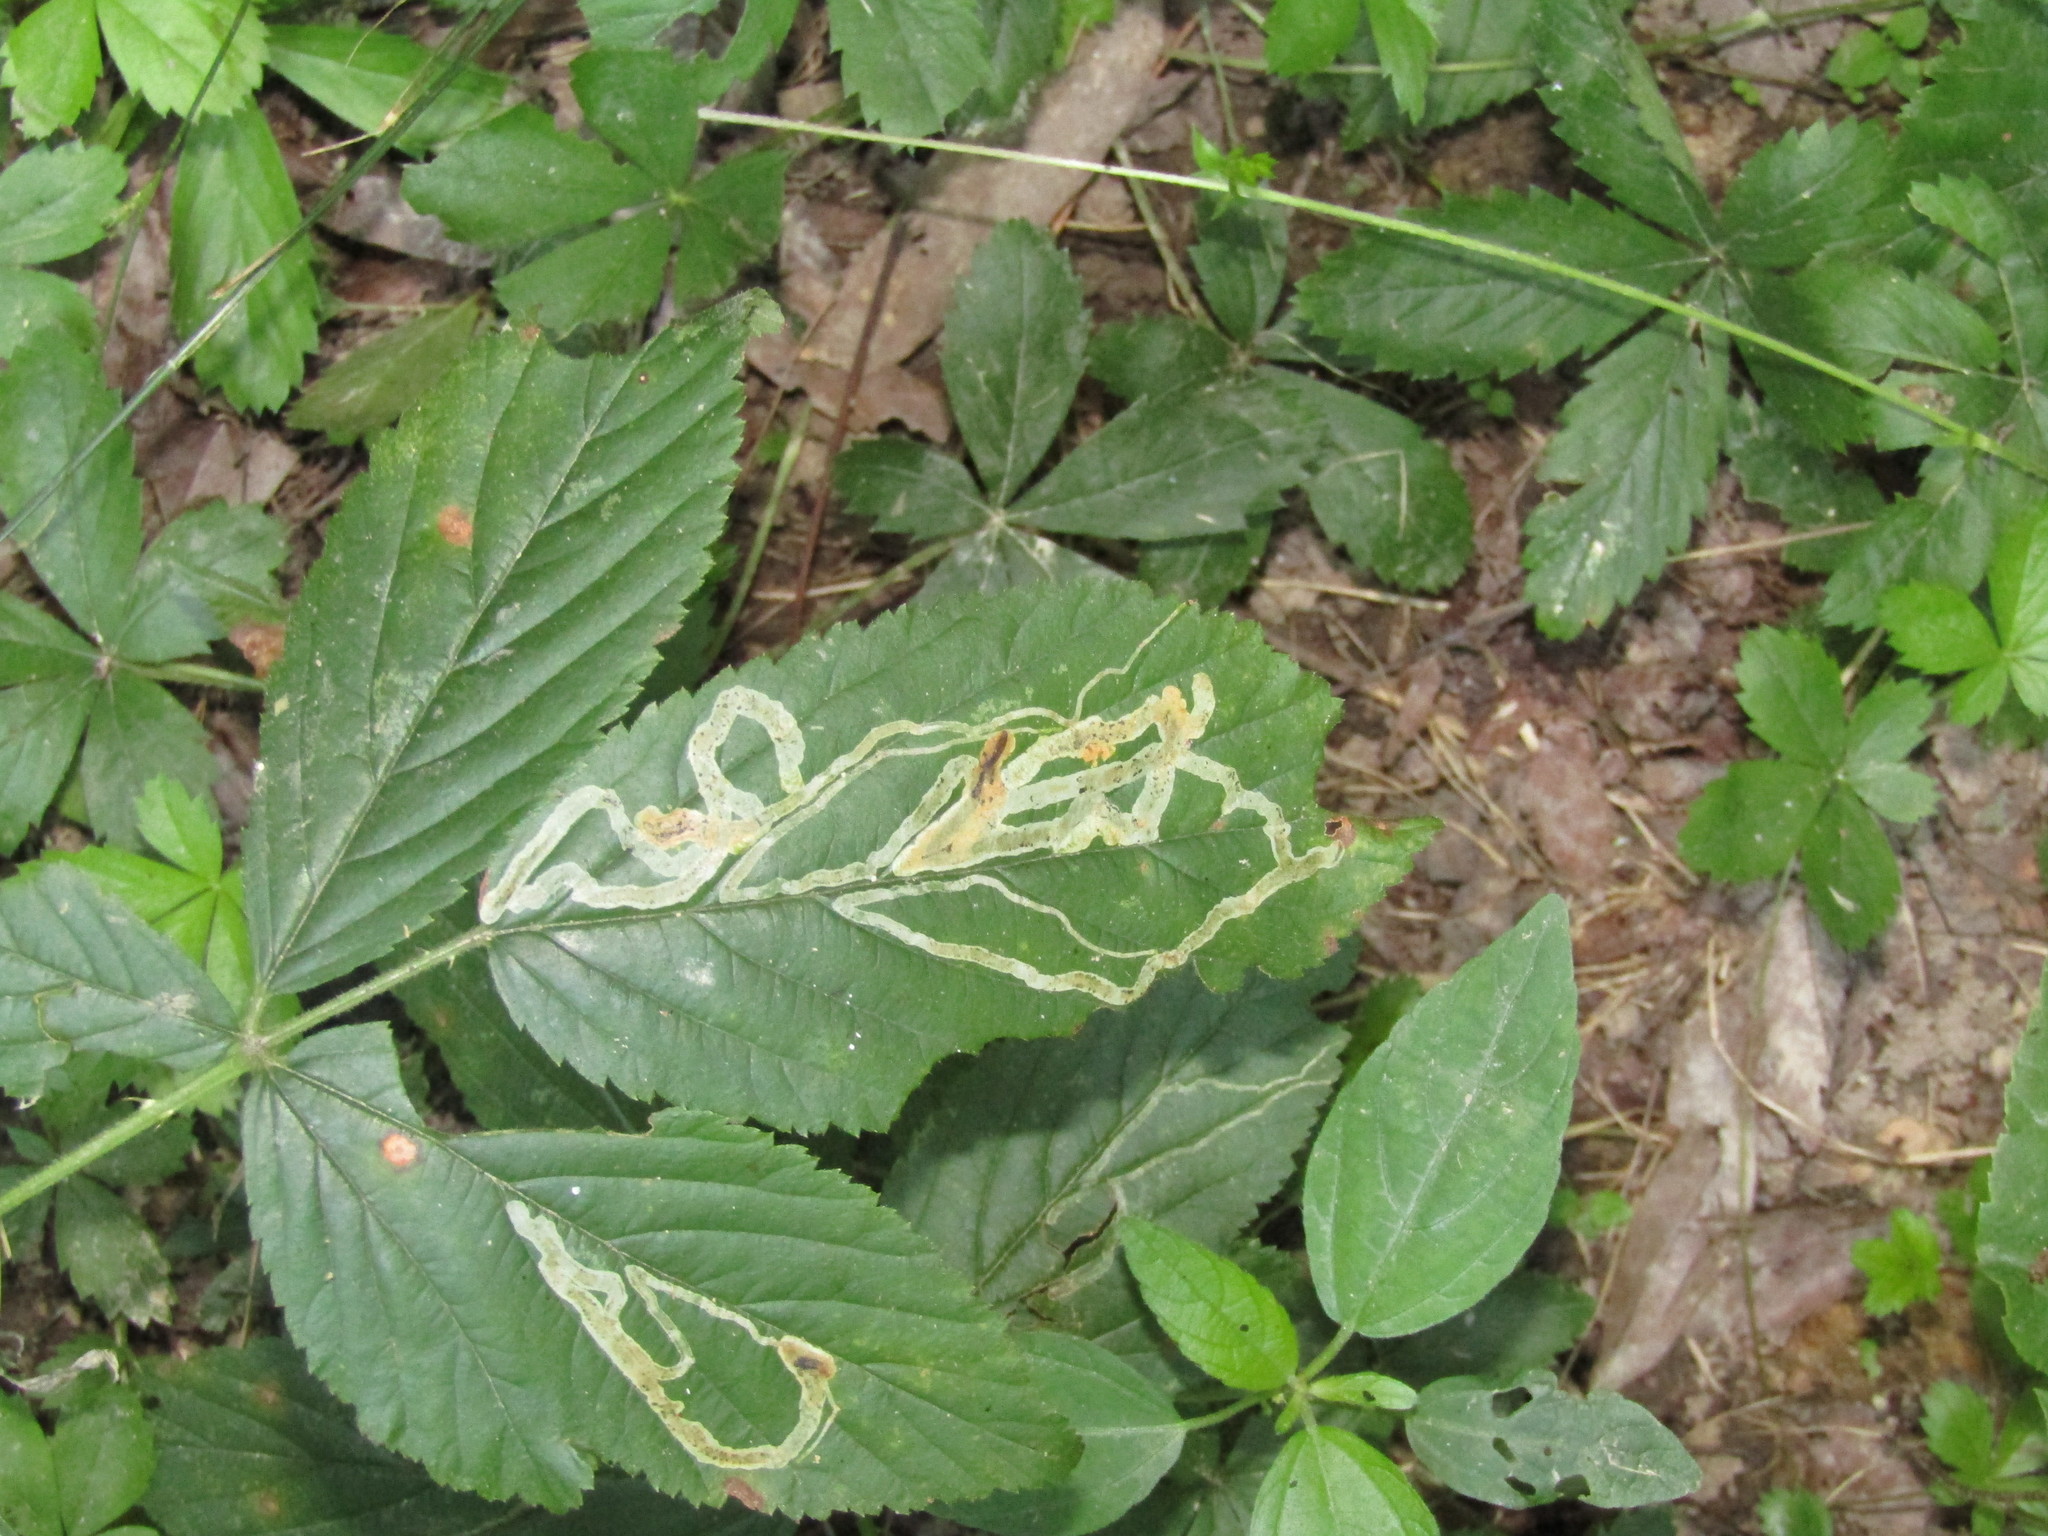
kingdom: Animalia
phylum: Arthropoda
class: Insecta
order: Diptera
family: Agromyzidae
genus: Agromyza
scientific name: Agromyza vockerothi
